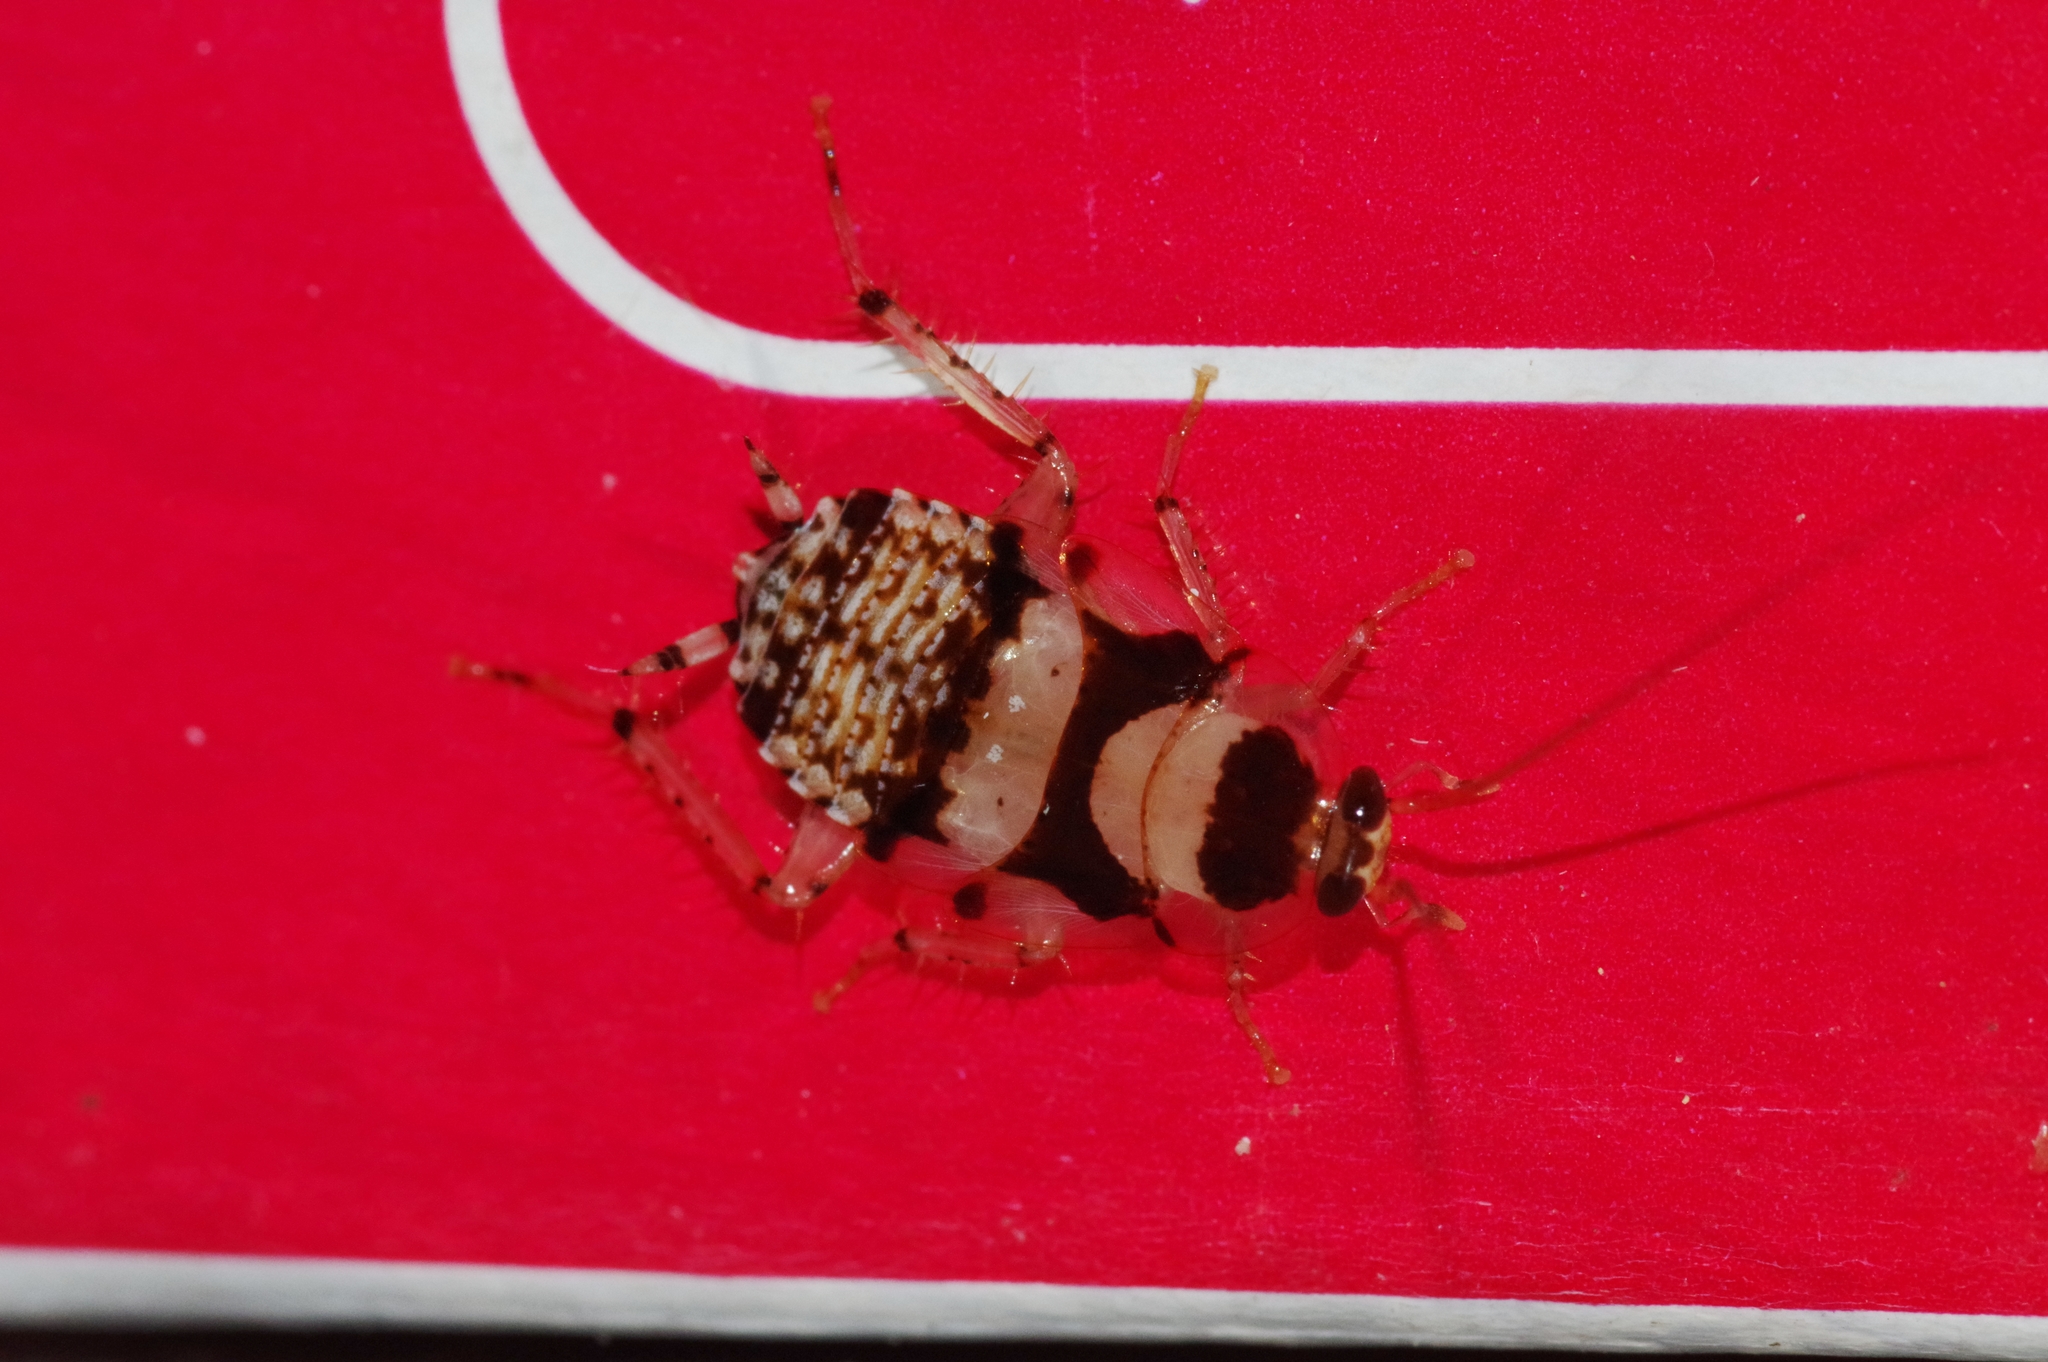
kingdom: Animalia
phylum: Arthropoda
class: Insecta
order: Blattodea
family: Ectobiidae
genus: Balta
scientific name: Balta notulata
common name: Cockroach
